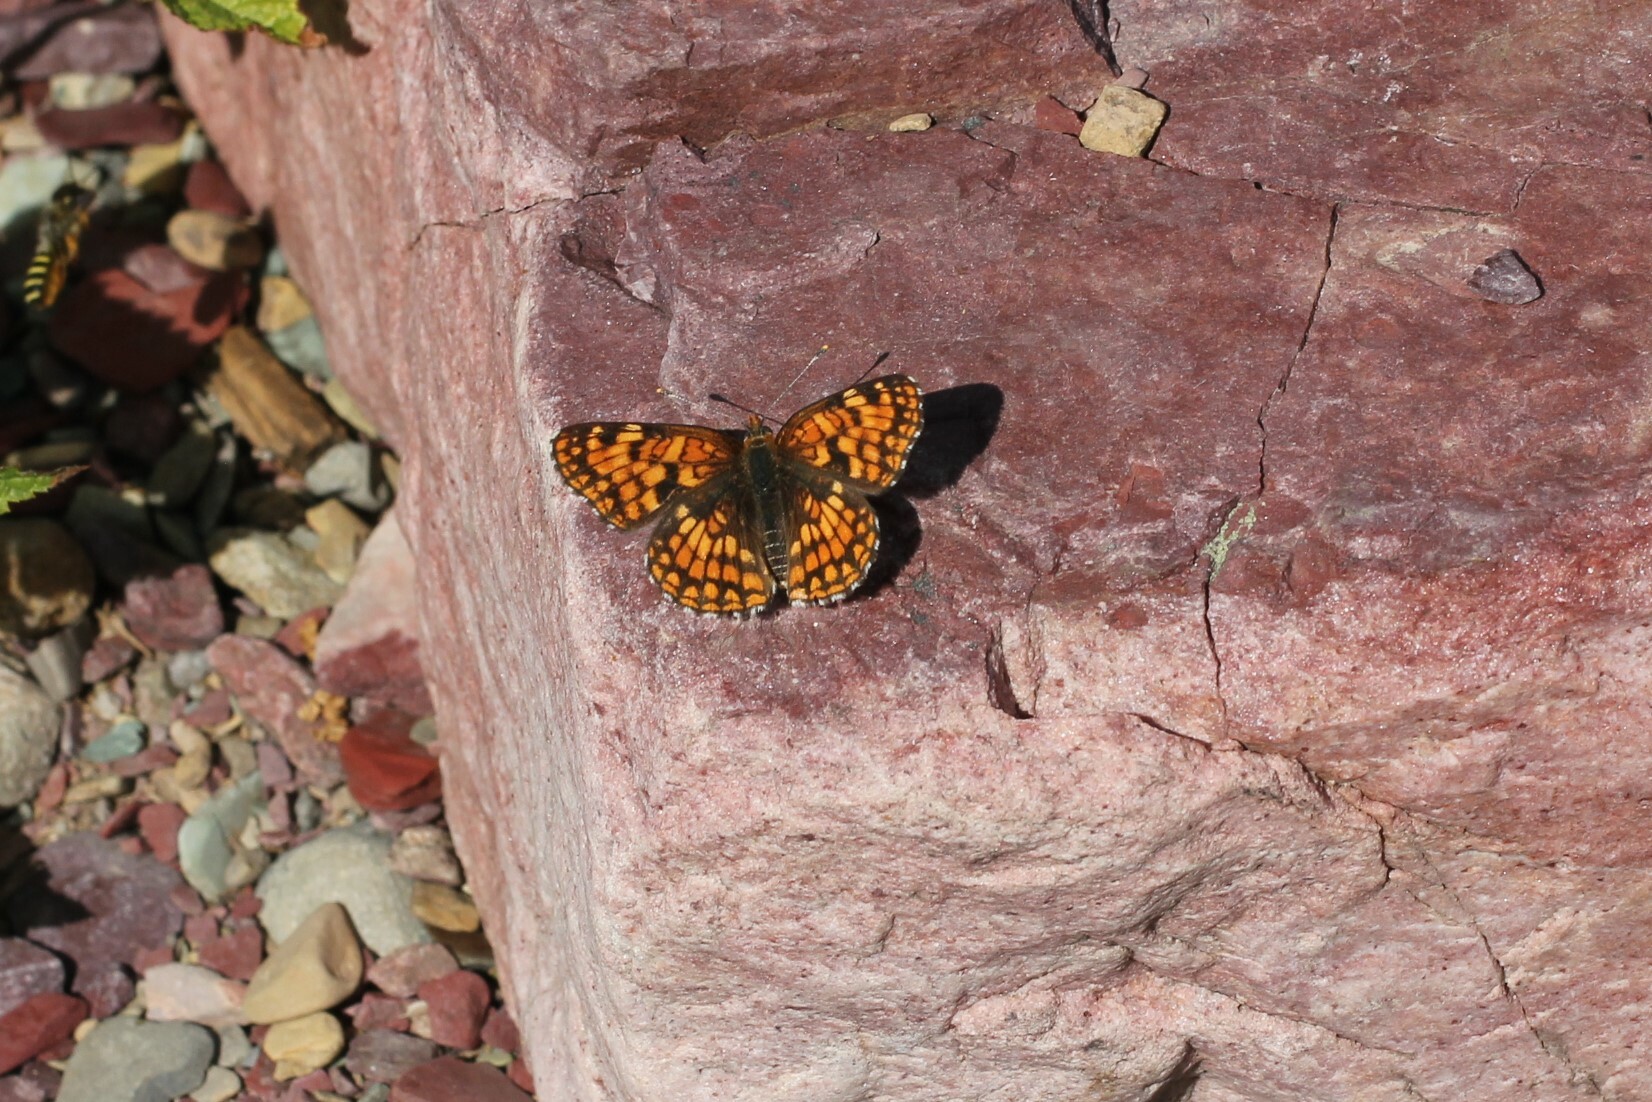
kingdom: Animalia
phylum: Arthropoda
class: Insecta
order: Lepidoptera
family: Nymphalidae
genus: Chlosyne
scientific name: Chlosyne damoetas
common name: Rockslide checkerspot
